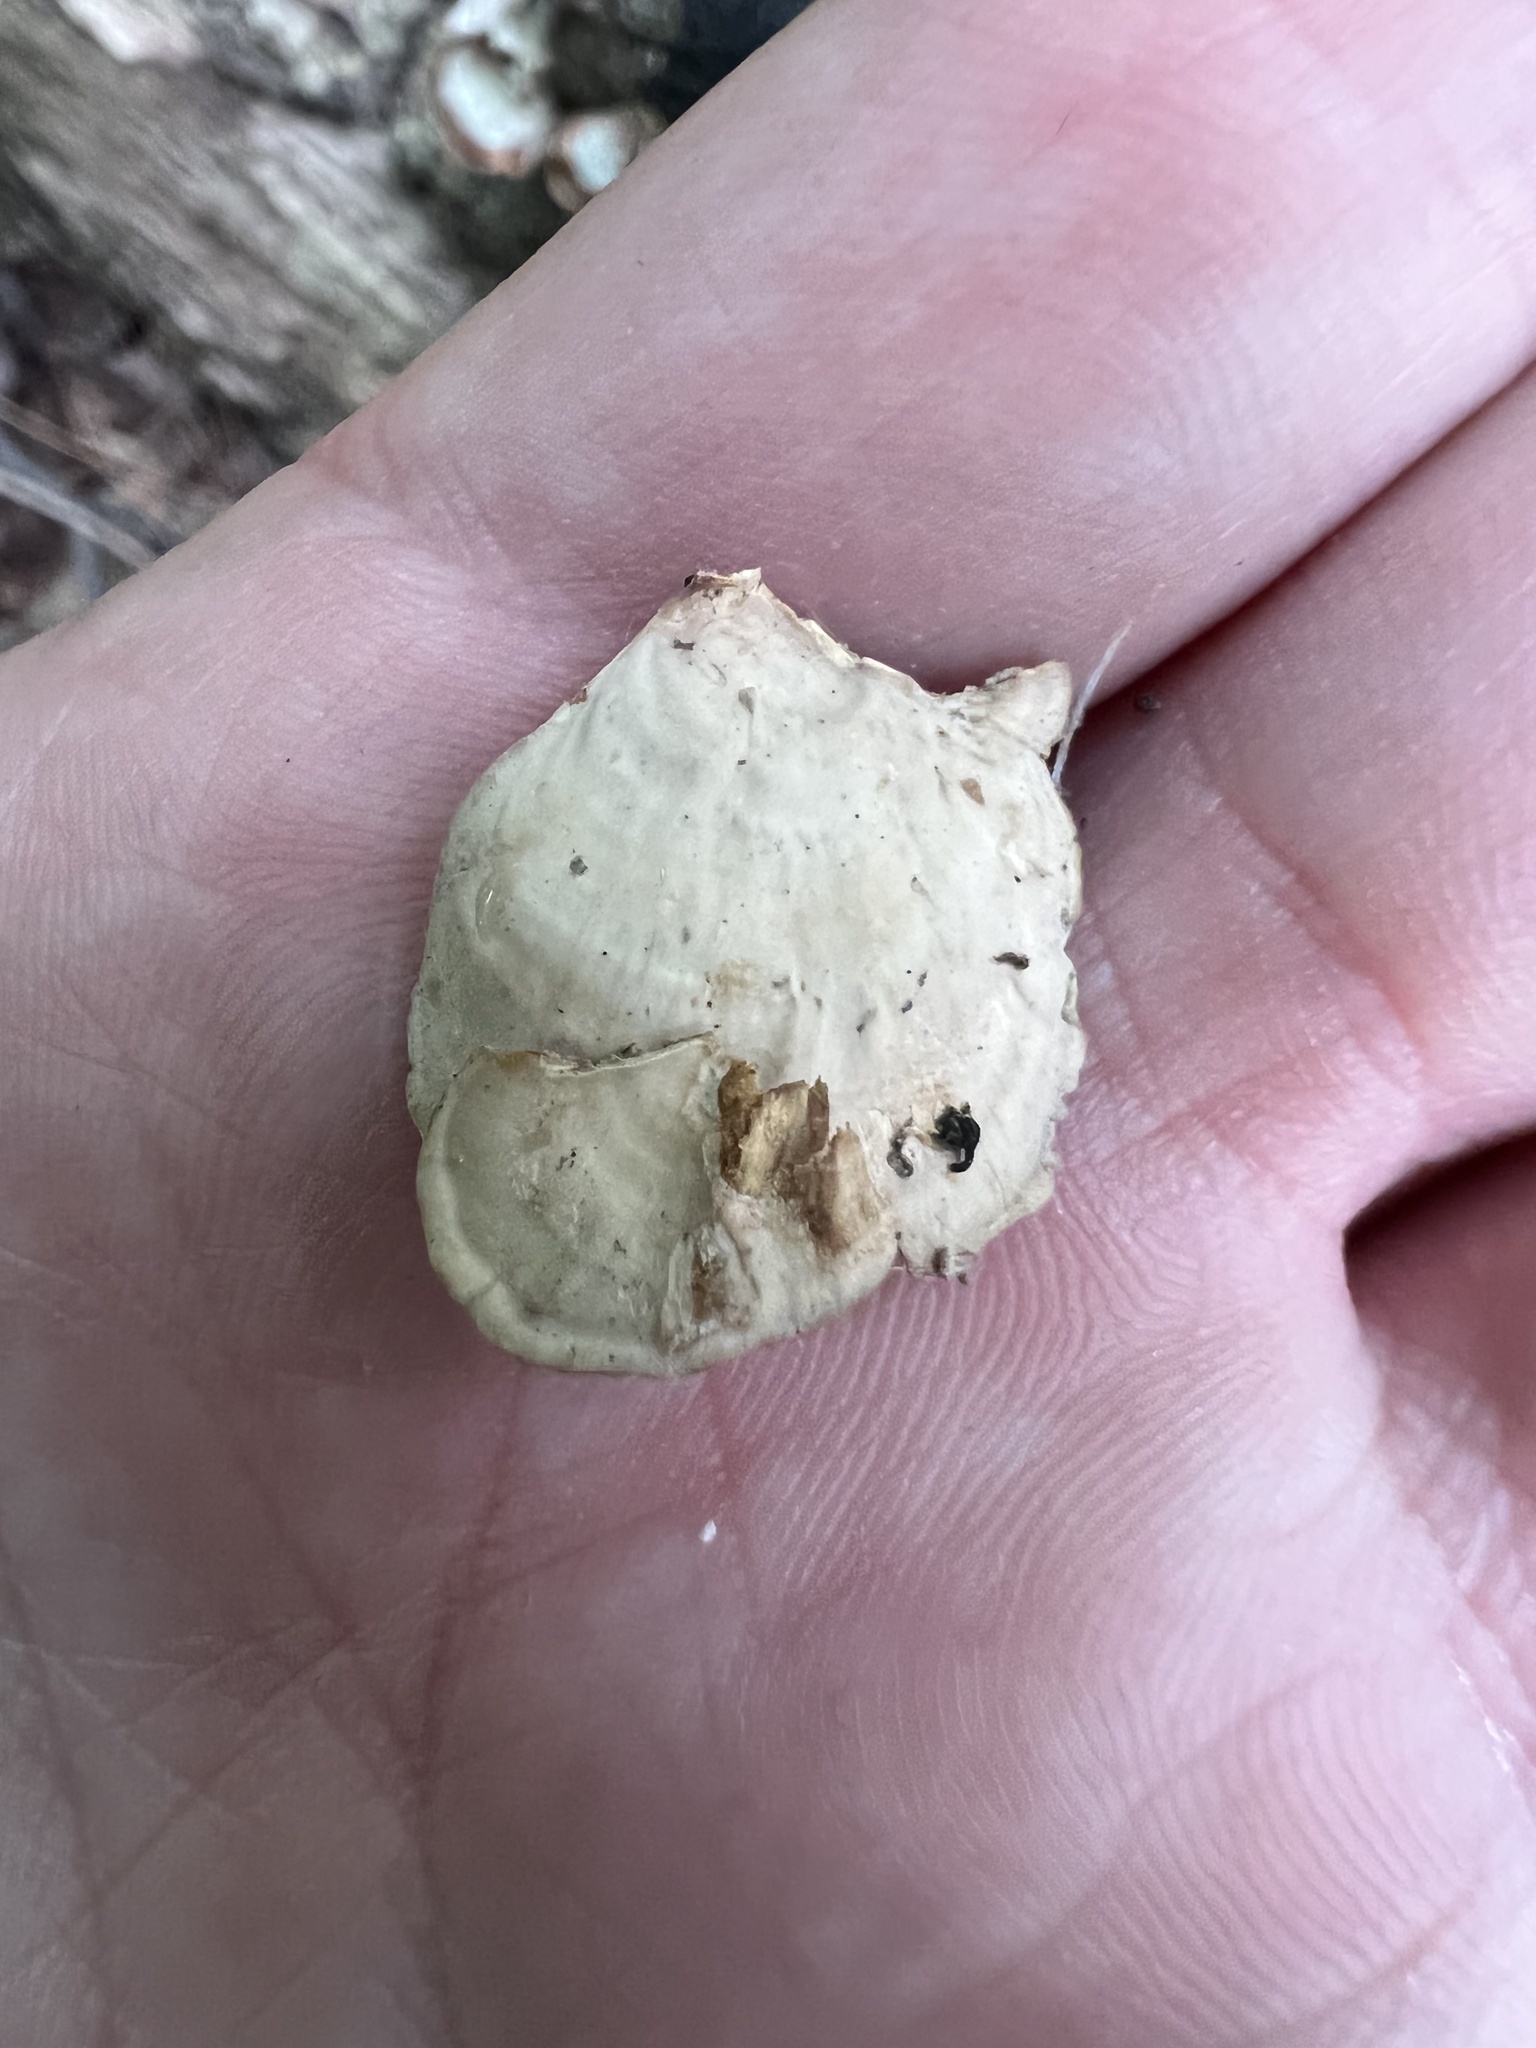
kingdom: Fungi
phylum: Basidiomycota
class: Agaricomycetes
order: Russulales
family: Stereaceae
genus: Stereum
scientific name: Stereum lobatum
